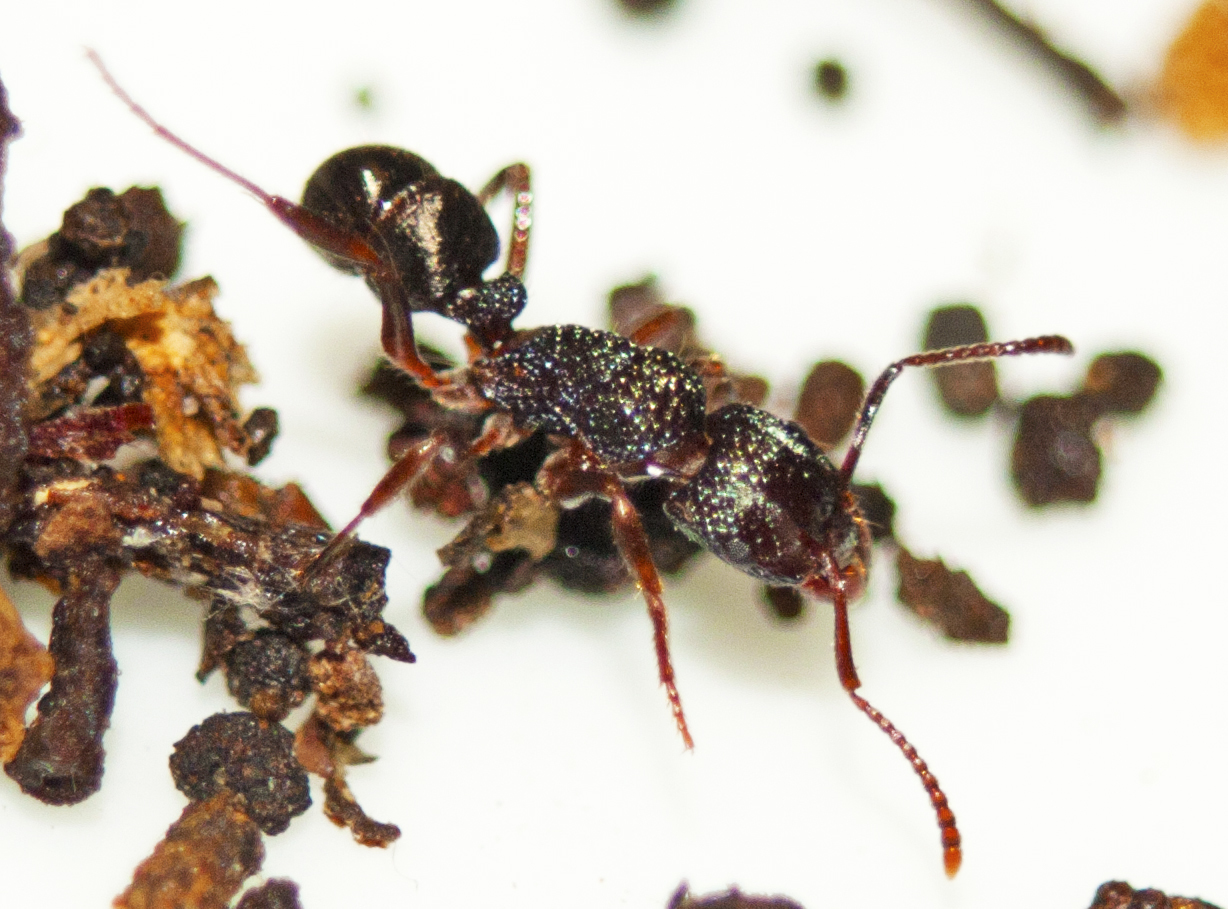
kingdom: Animalia
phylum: Arthropoda
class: Insecta
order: Hymenoptera
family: Formicidae
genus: Rhytidoponera
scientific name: Rhytidoponera victoriae
